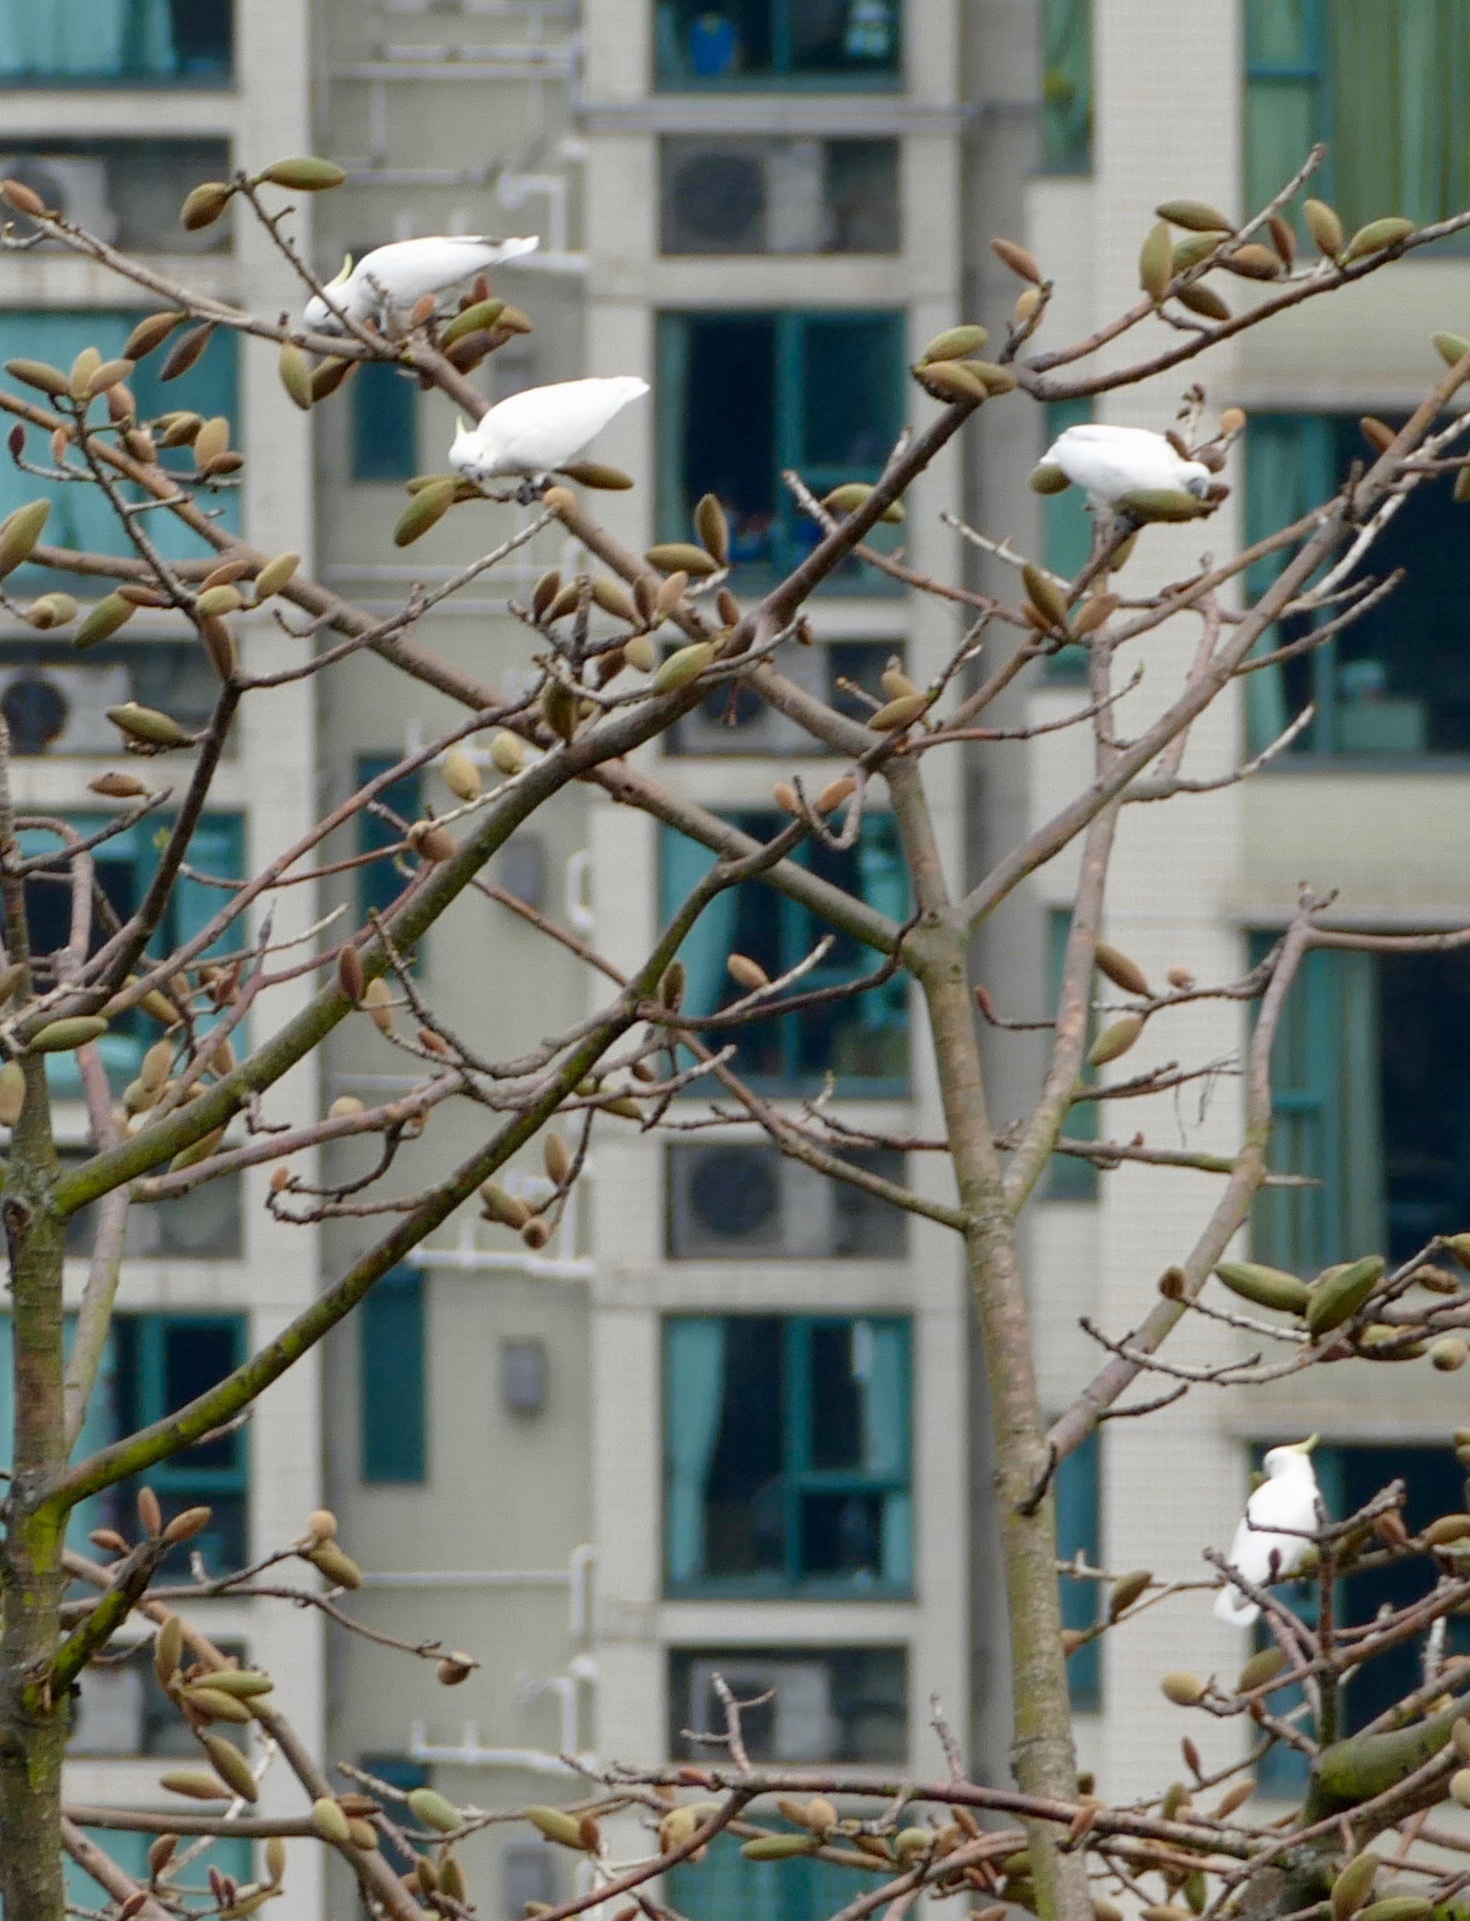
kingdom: Animalia
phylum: Chordata
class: Aves
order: Psittaciformes
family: Psittacidae
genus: Cacatua
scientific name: Cacatua sulphurea
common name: Yellow-crested cockatoo
